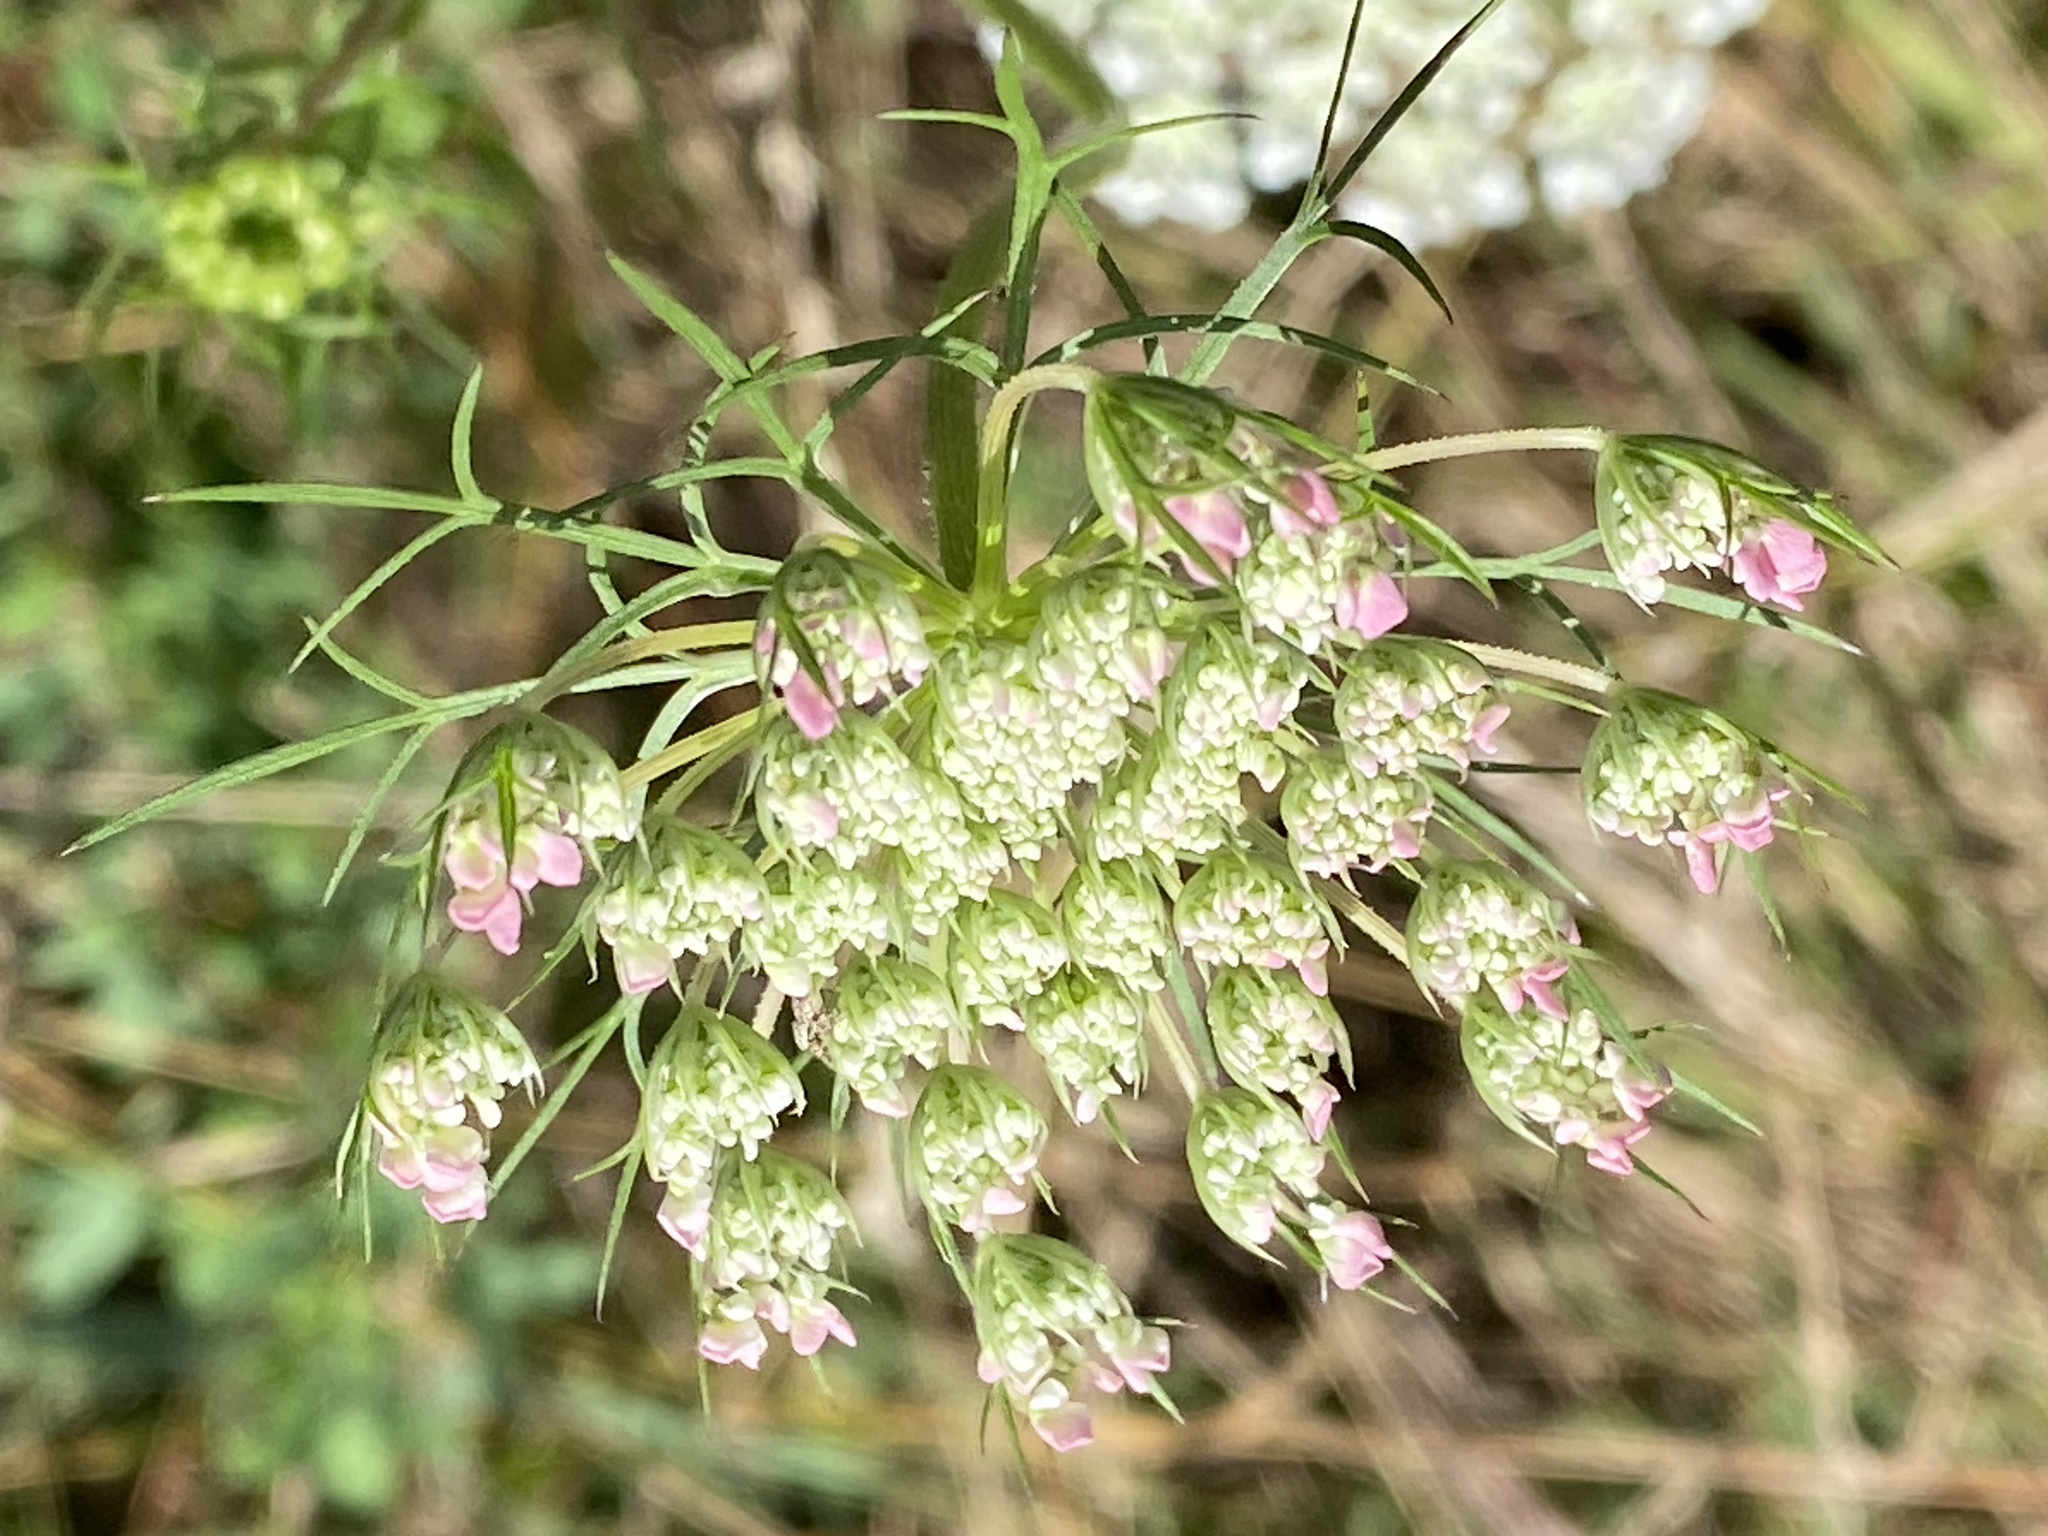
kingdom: Plantae
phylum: Tracheophyta
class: Magnoliopsida
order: Apiales
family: Apiaceae
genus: Daucus
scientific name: Daucus carota
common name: Wild carrot
